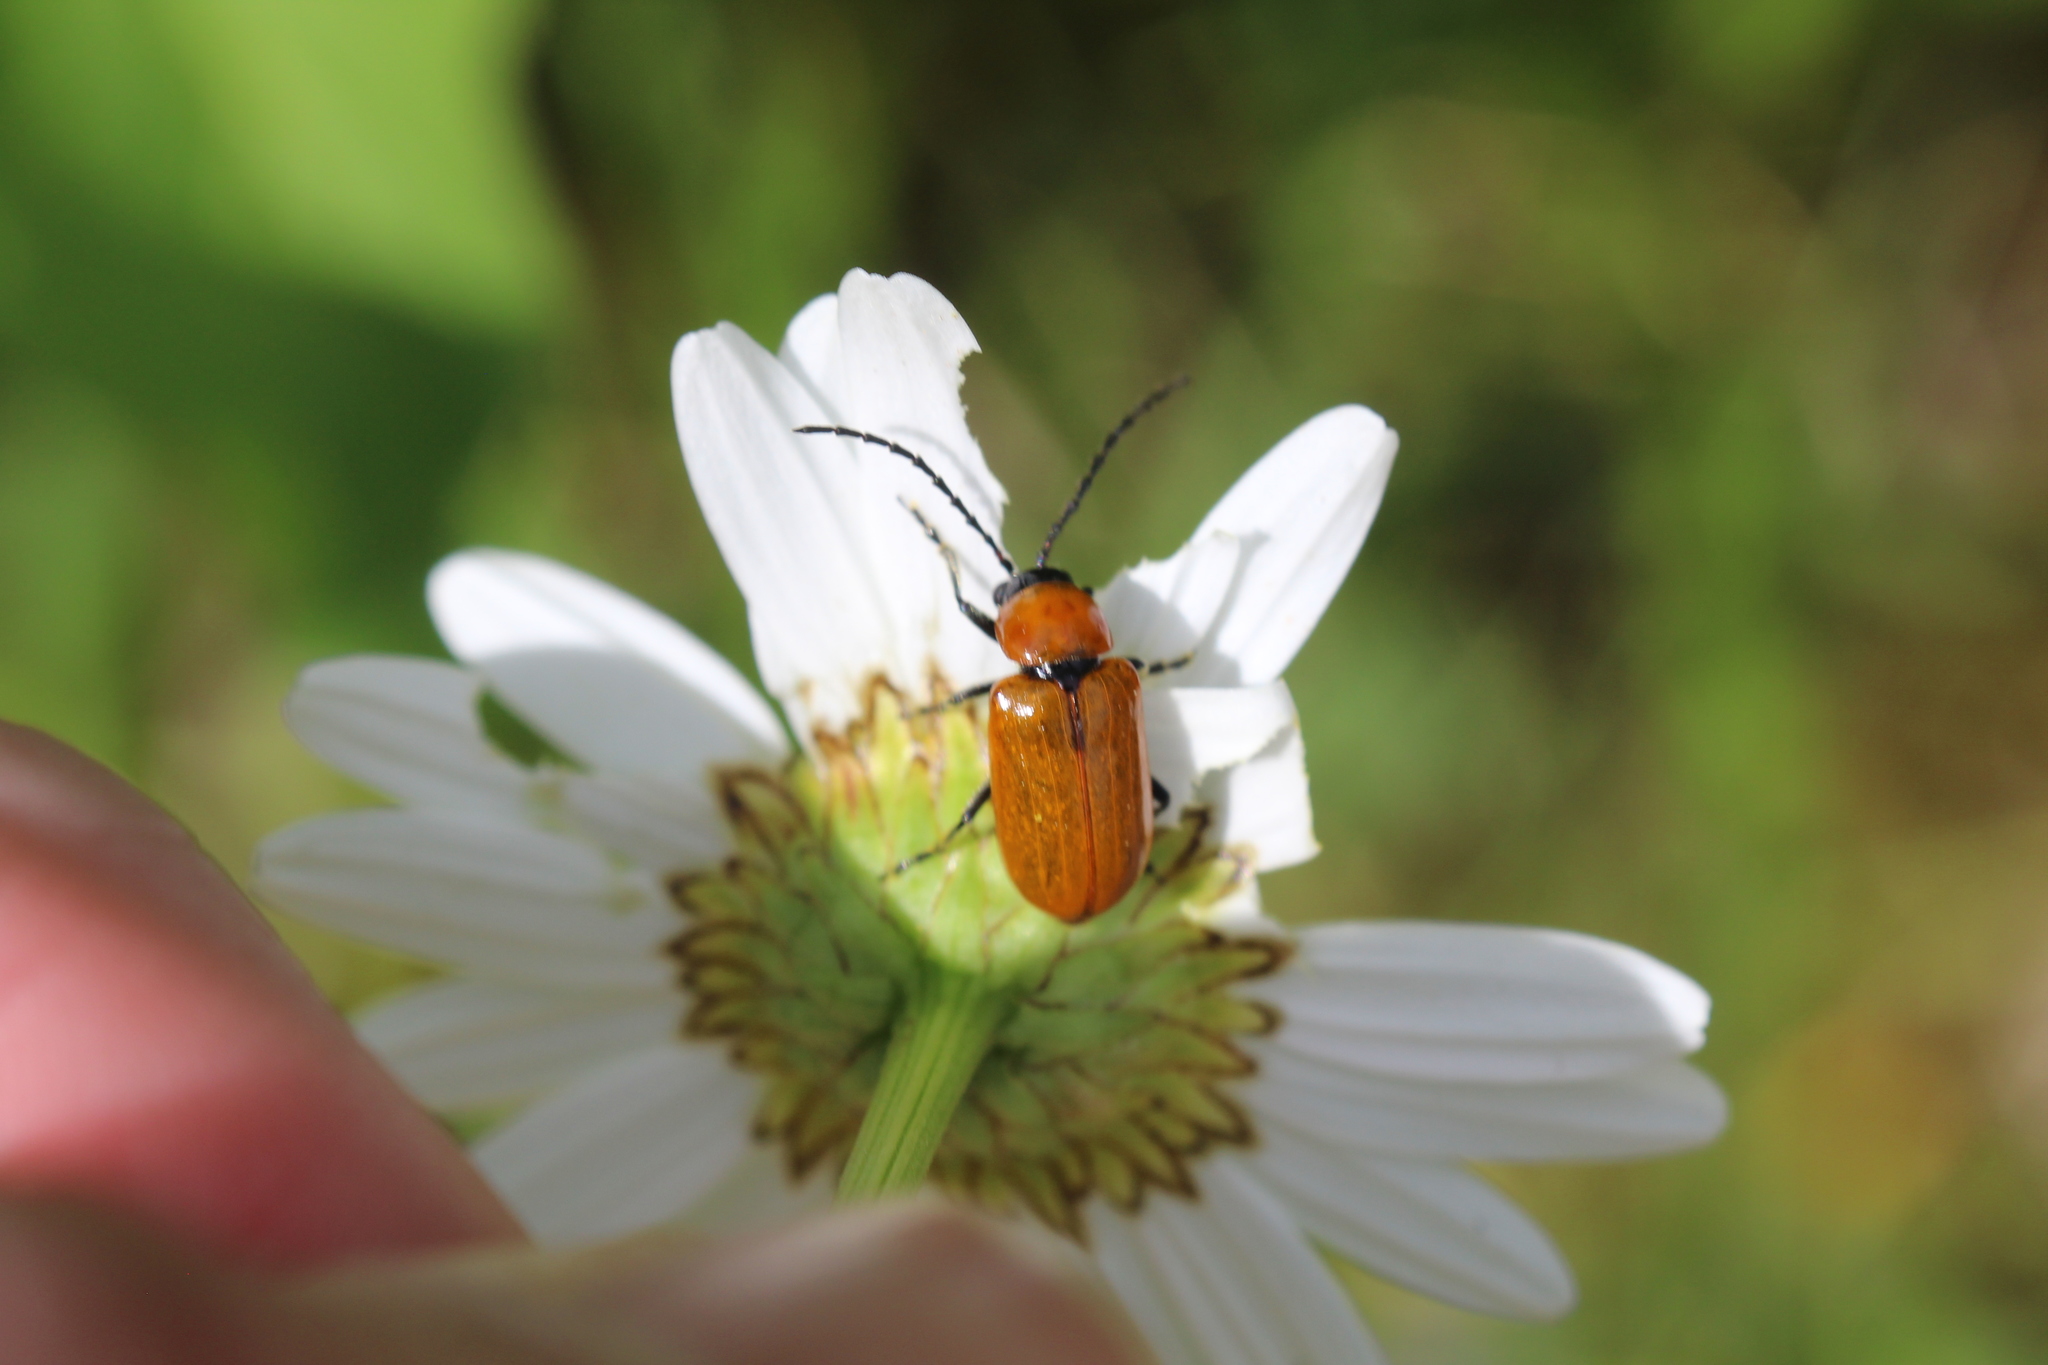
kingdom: Animalia
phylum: Arthropoda
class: Insecta
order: Coleoptera
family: Chrysomelidae
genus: Exosoma
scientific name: Exosoma lusitanicum
